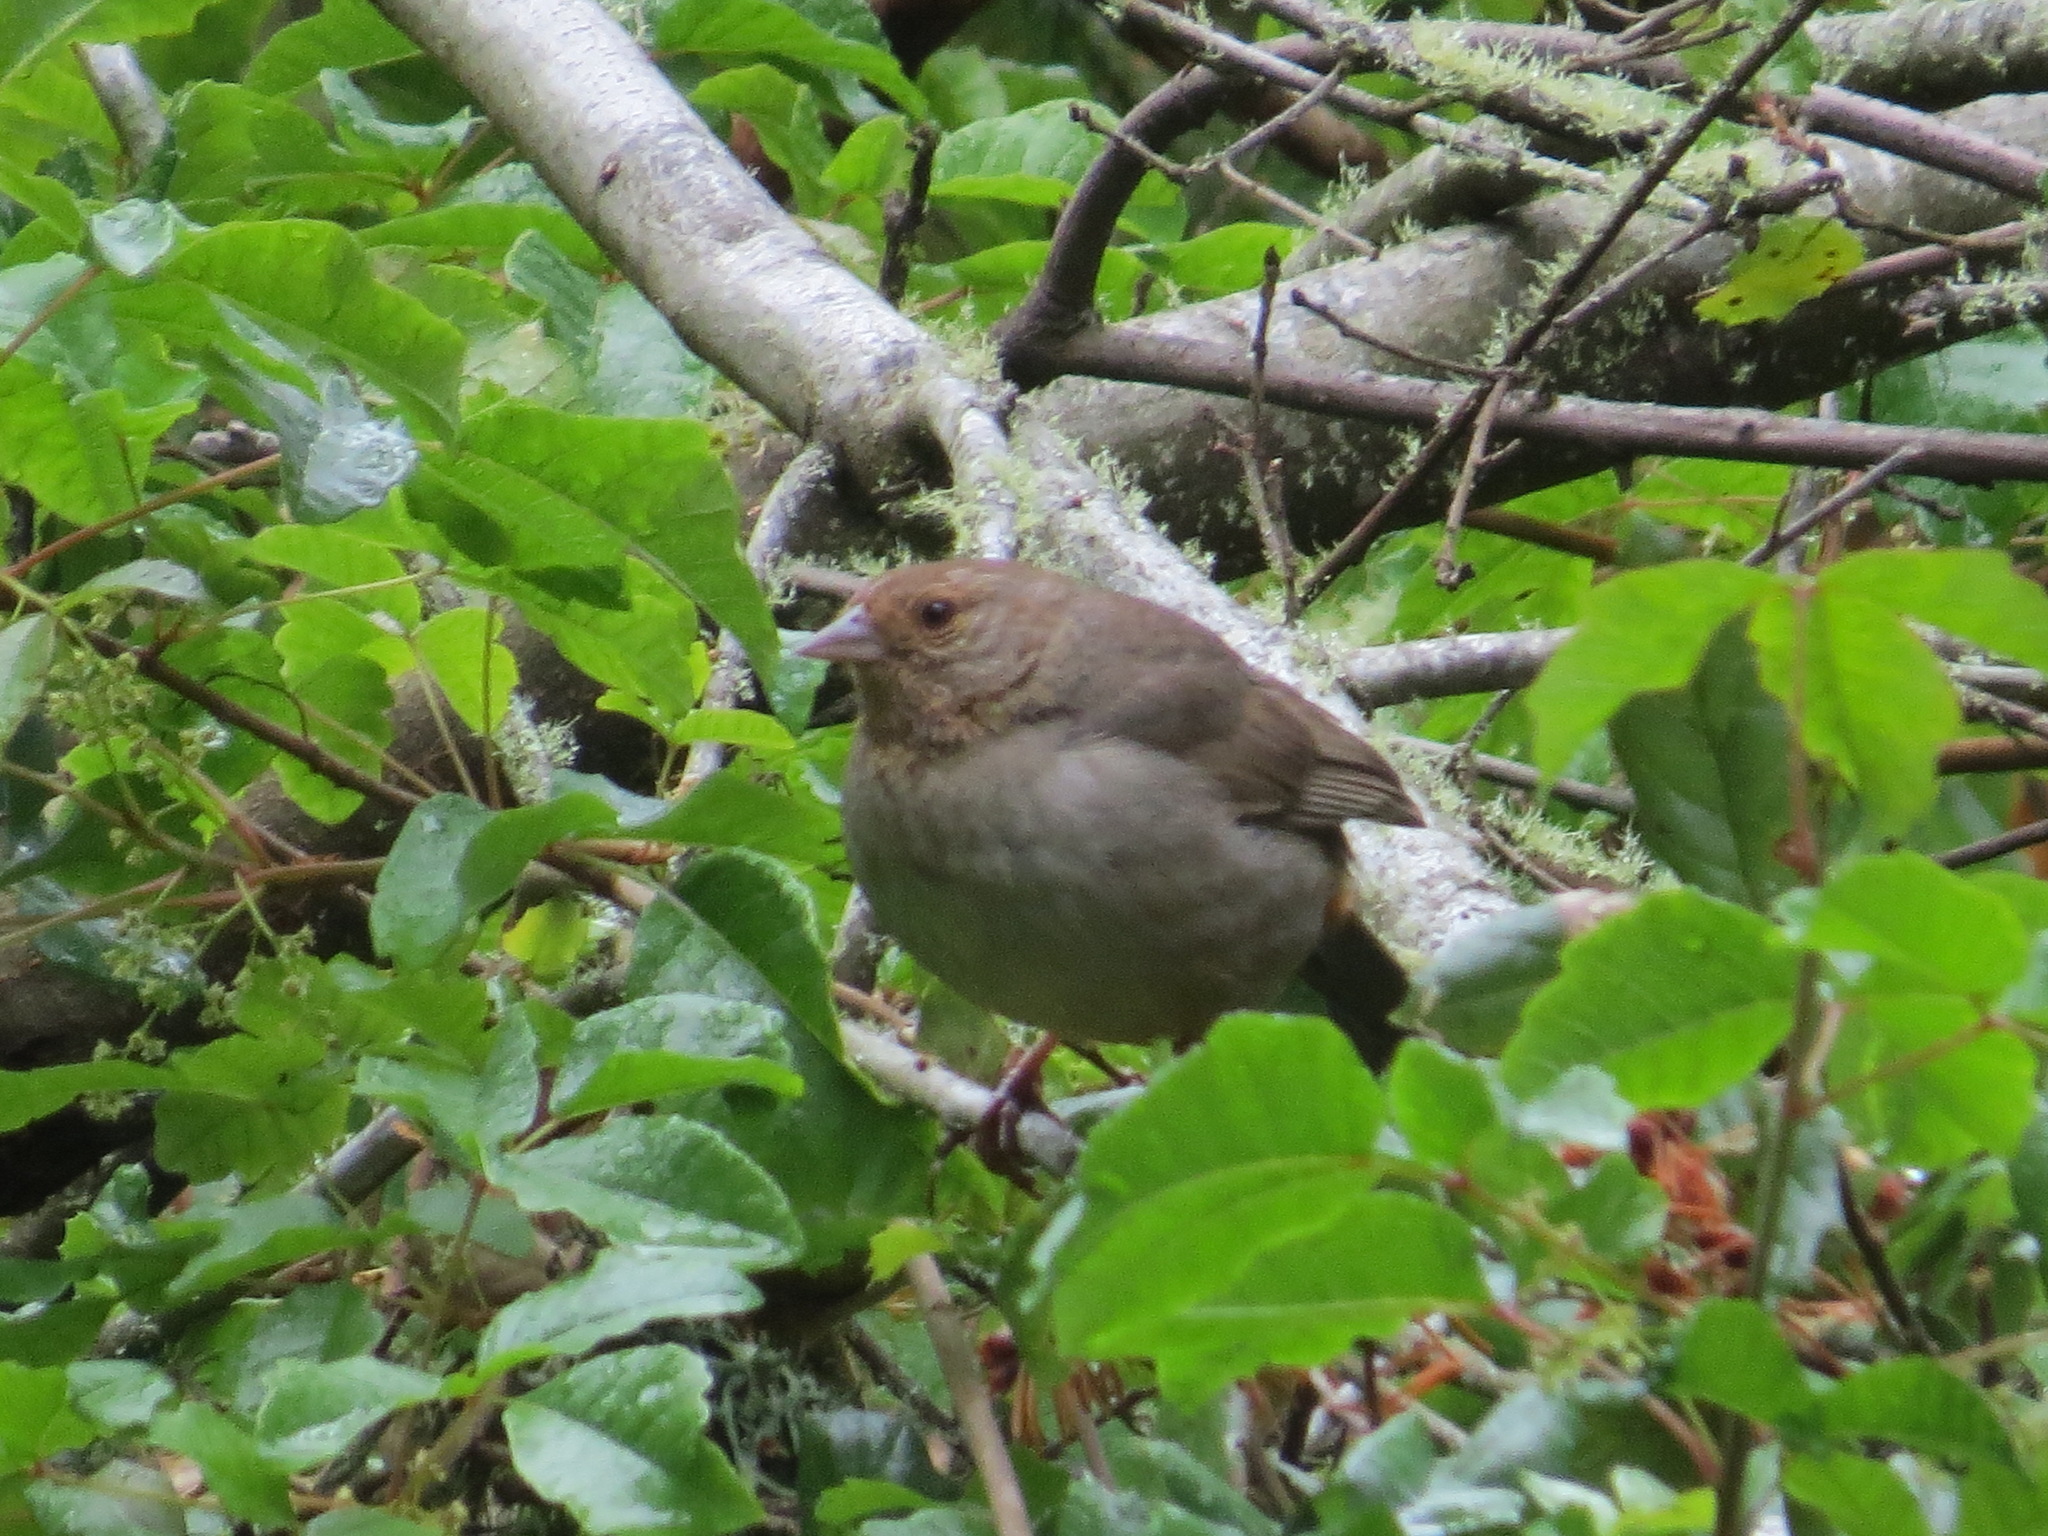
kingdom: Animalia
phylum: Chordata
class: Aves
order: Passeriformes
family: Passerellidae
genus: Melozone
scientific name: Melozone crissalis
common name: California towhee
